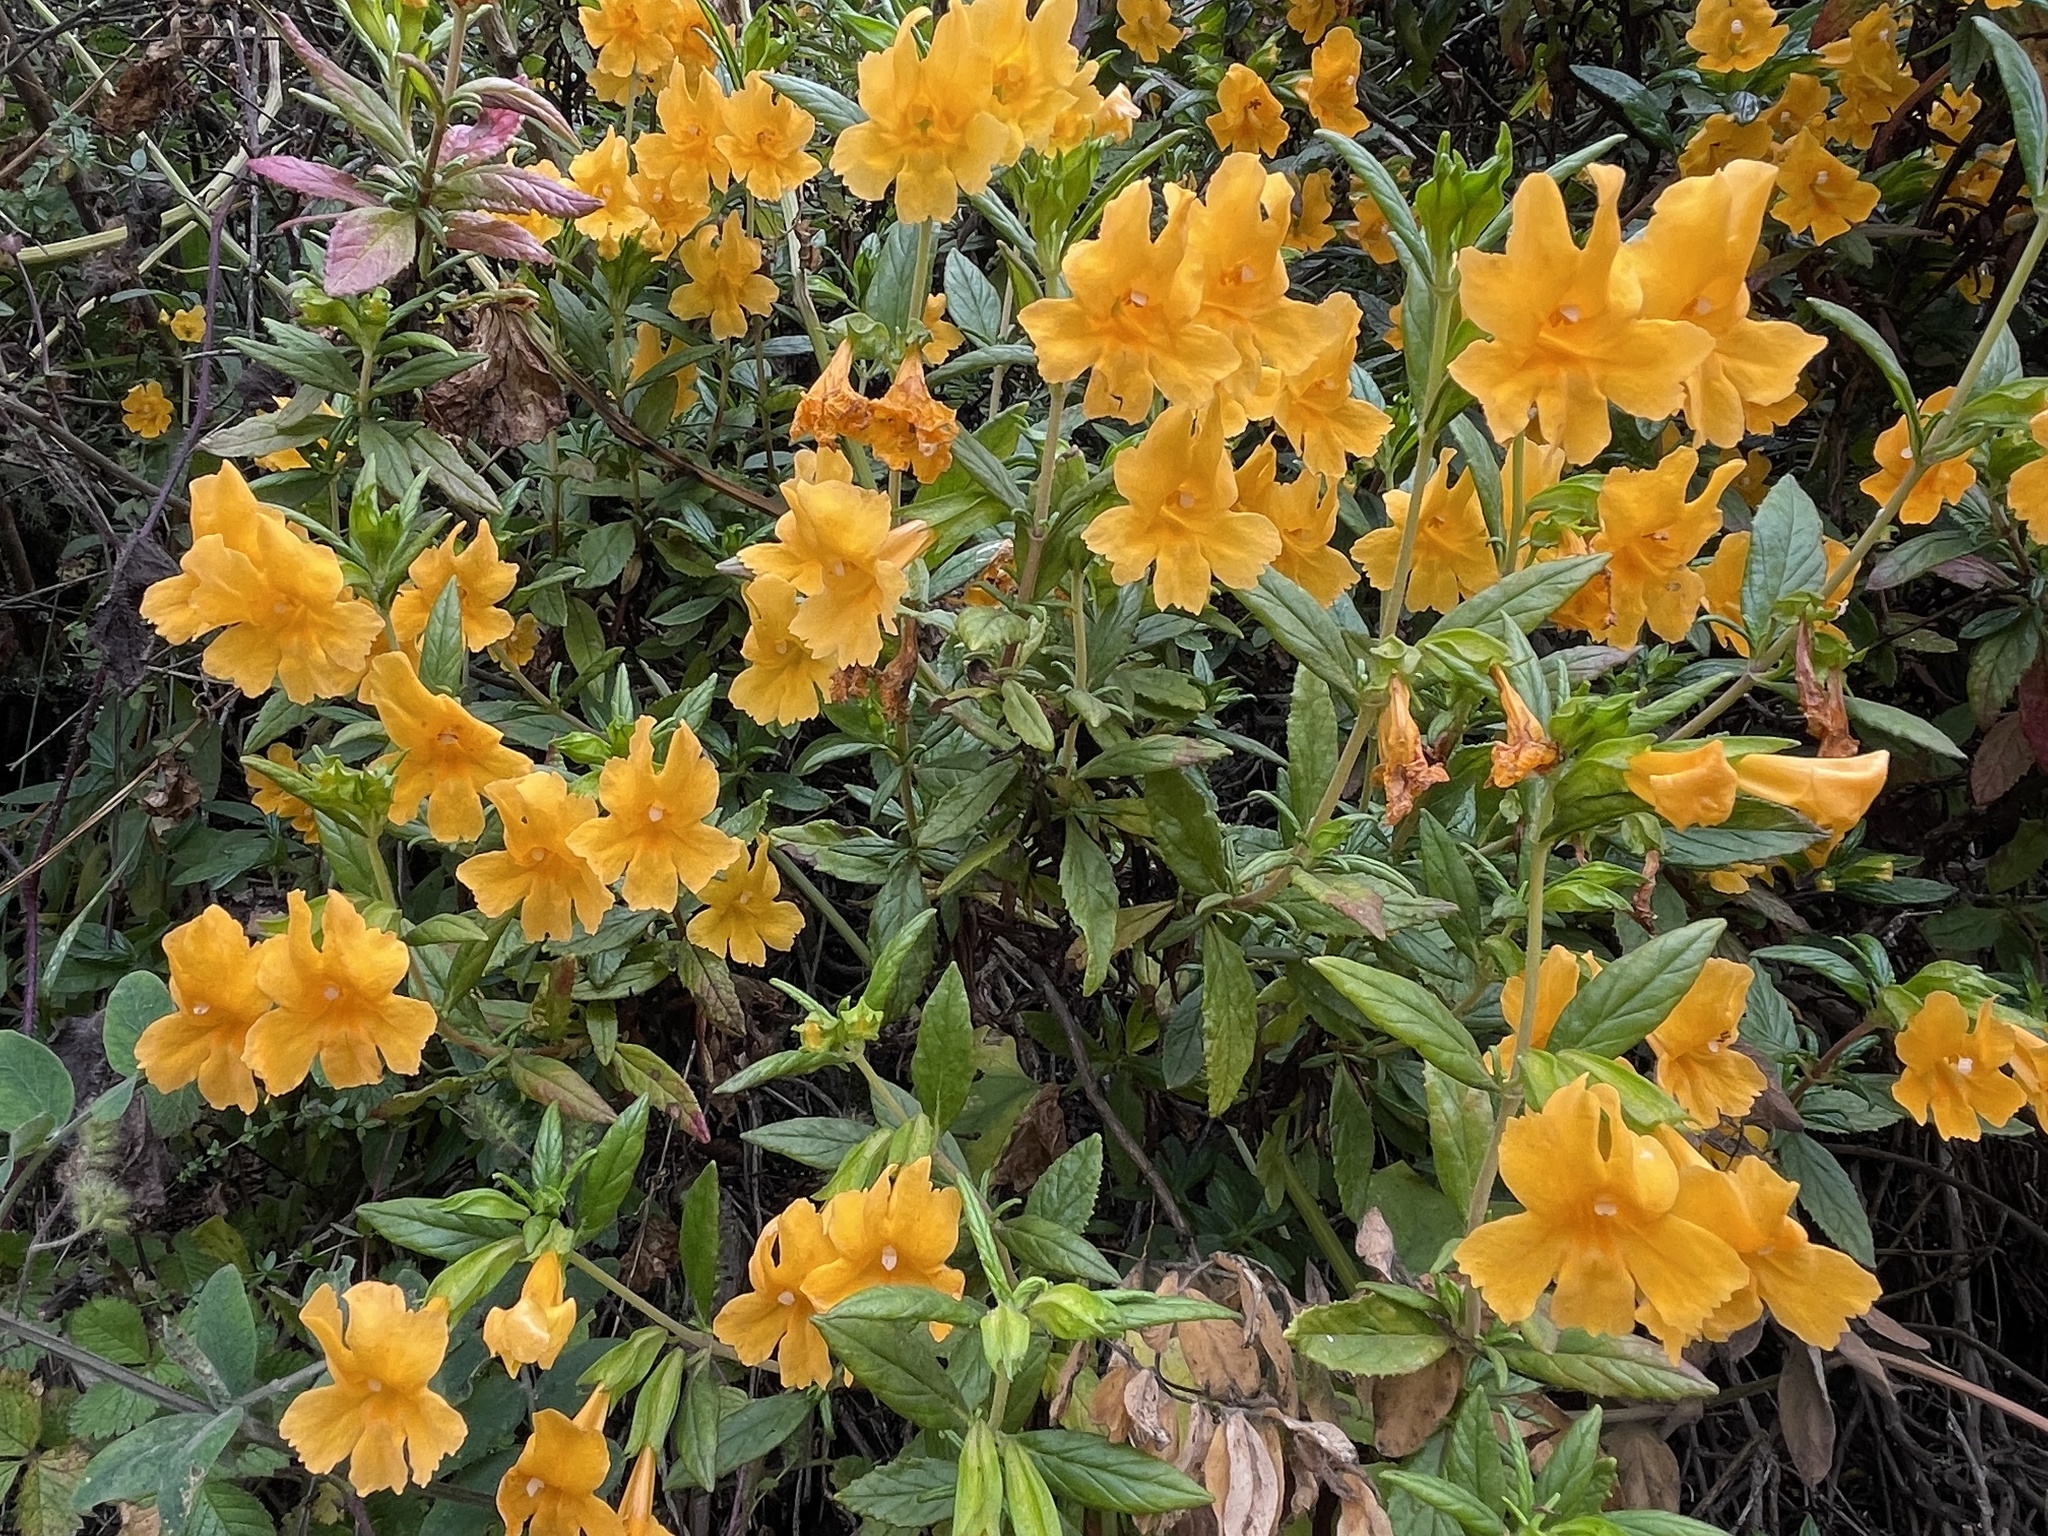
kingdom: Plantae
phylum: Tracheophyta
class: Magnoliopsida
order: Lamiales
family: Phrymaceae
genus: Diplacus
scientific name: Diplacus aurantiacus
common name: Bush monkey-flower
